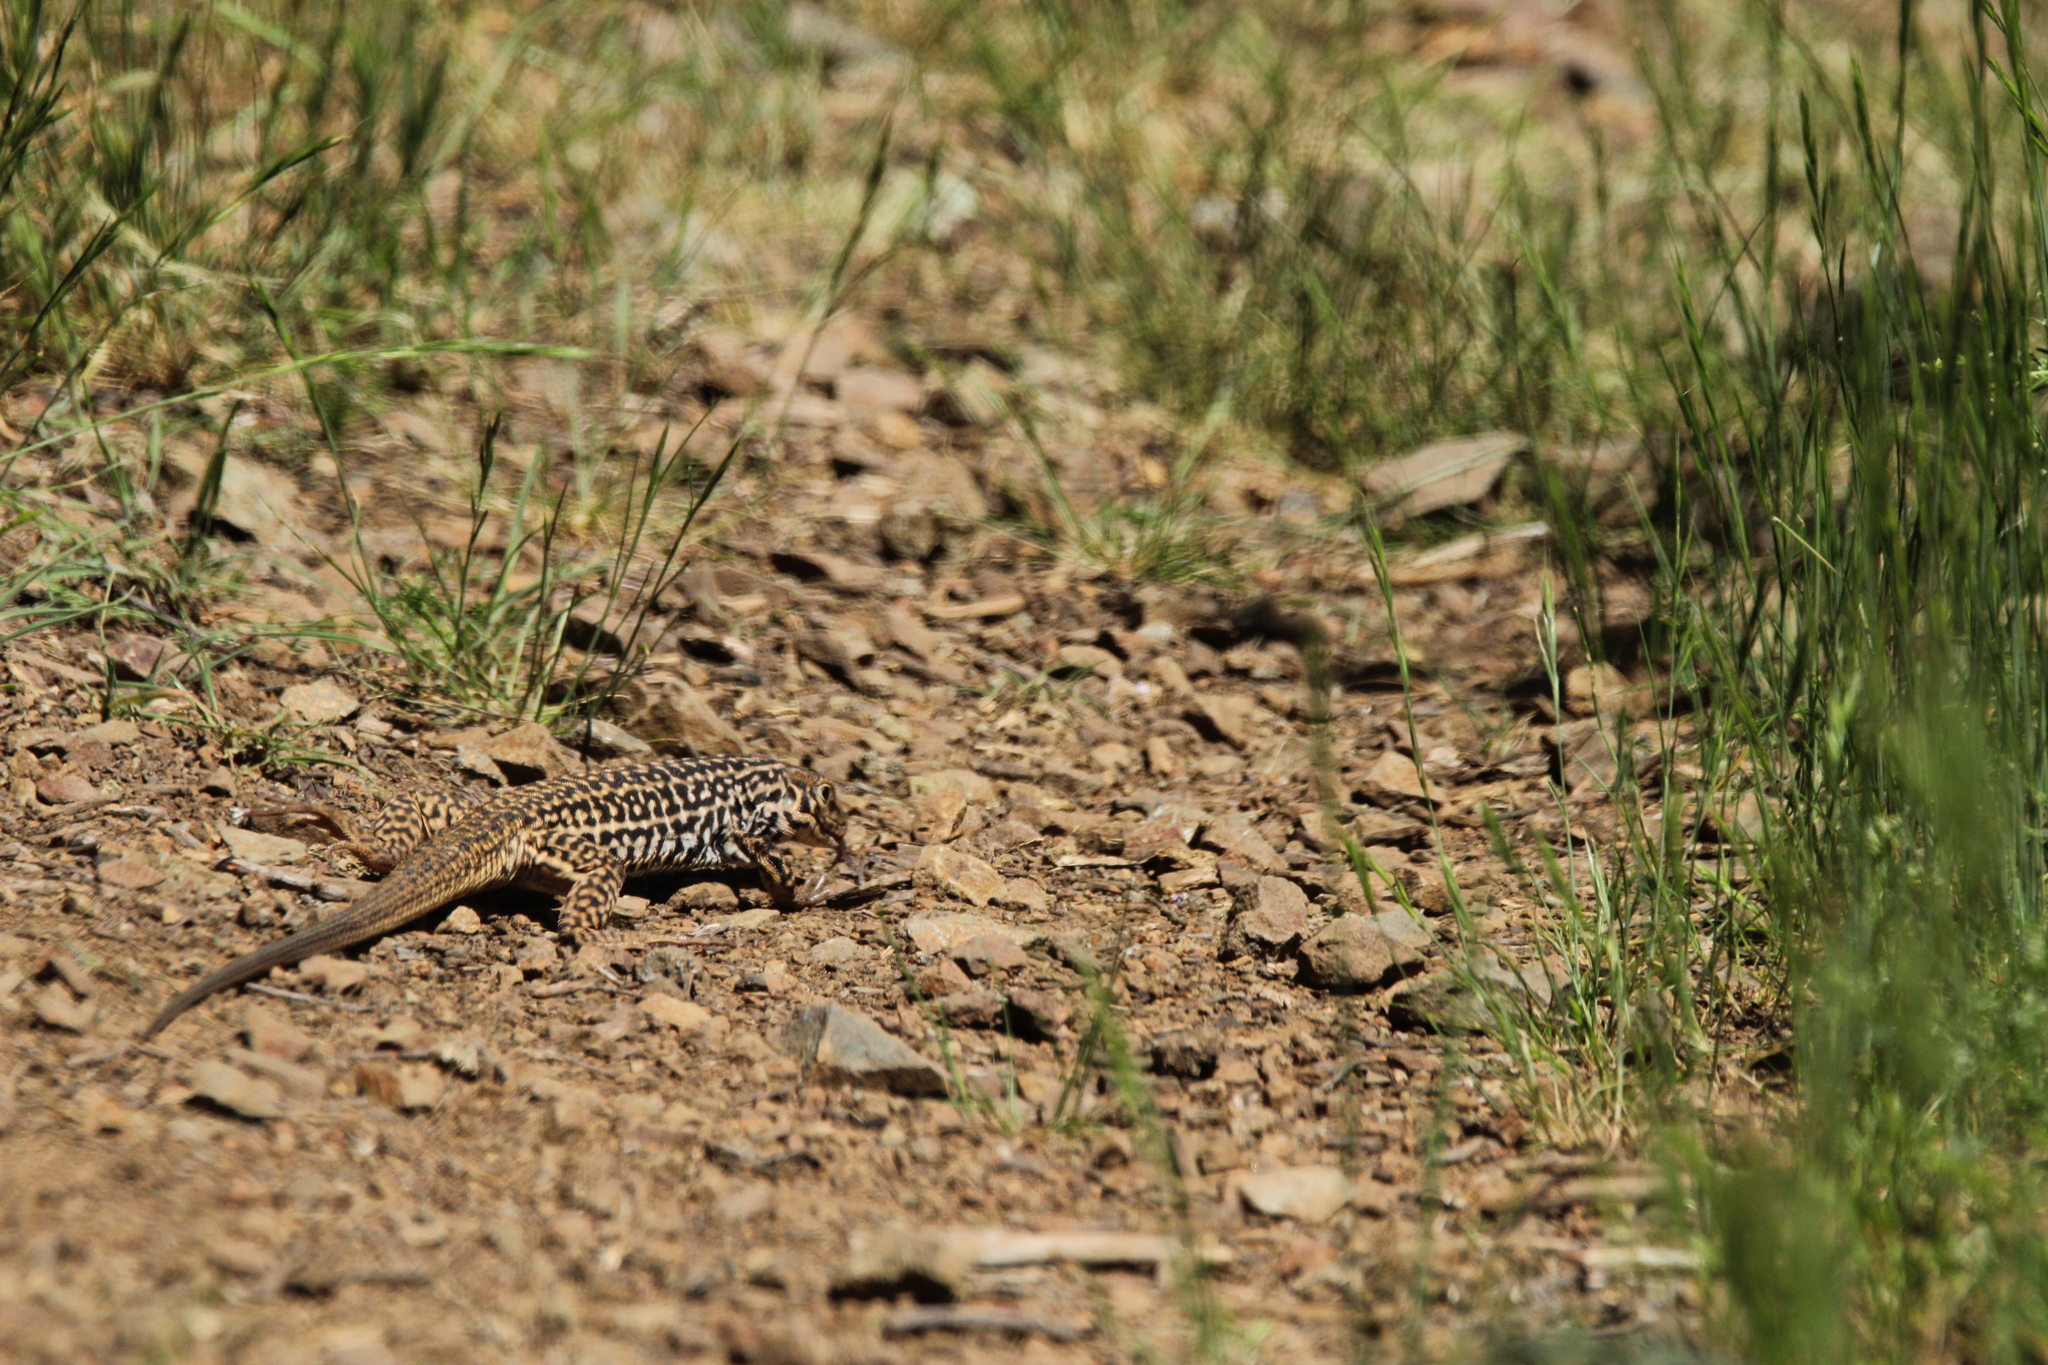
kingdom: Animalia
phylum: Chordata
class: Squamata
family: Teiidae
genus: Aspidoscelis
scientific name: Aspidoscelis tigris
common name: Tiger whiptail
